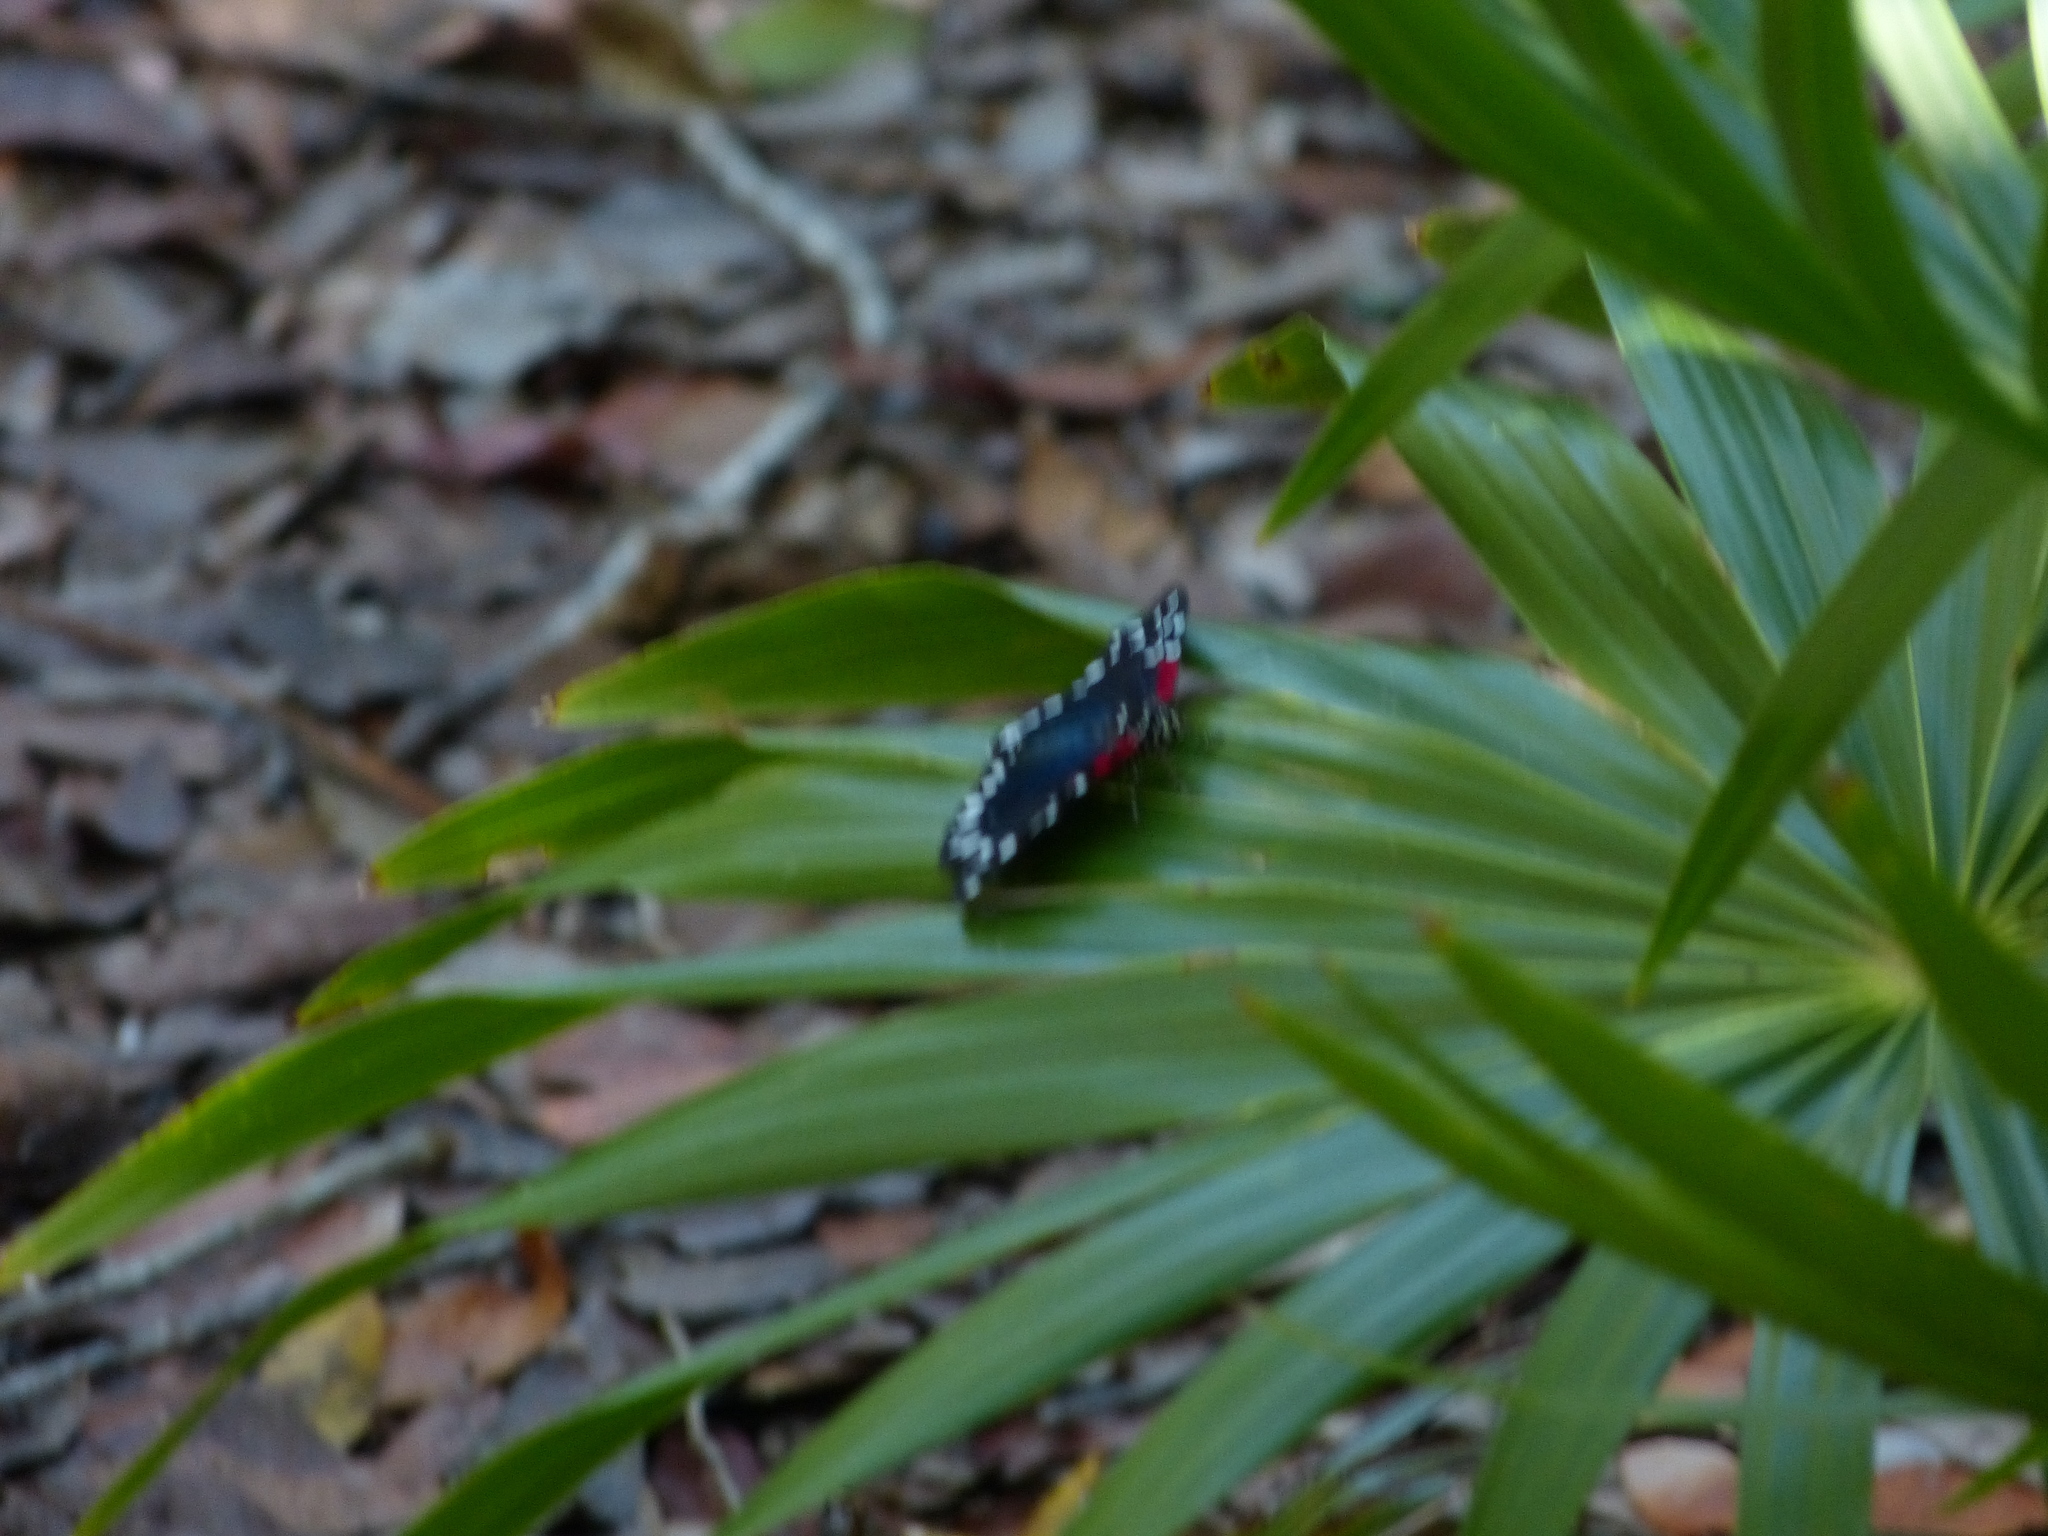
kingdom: Animalia
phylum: Arthropoda
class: Insecta
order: Lepidoptera
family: Erebidae
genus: Composia
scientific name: Composia fidelissima
